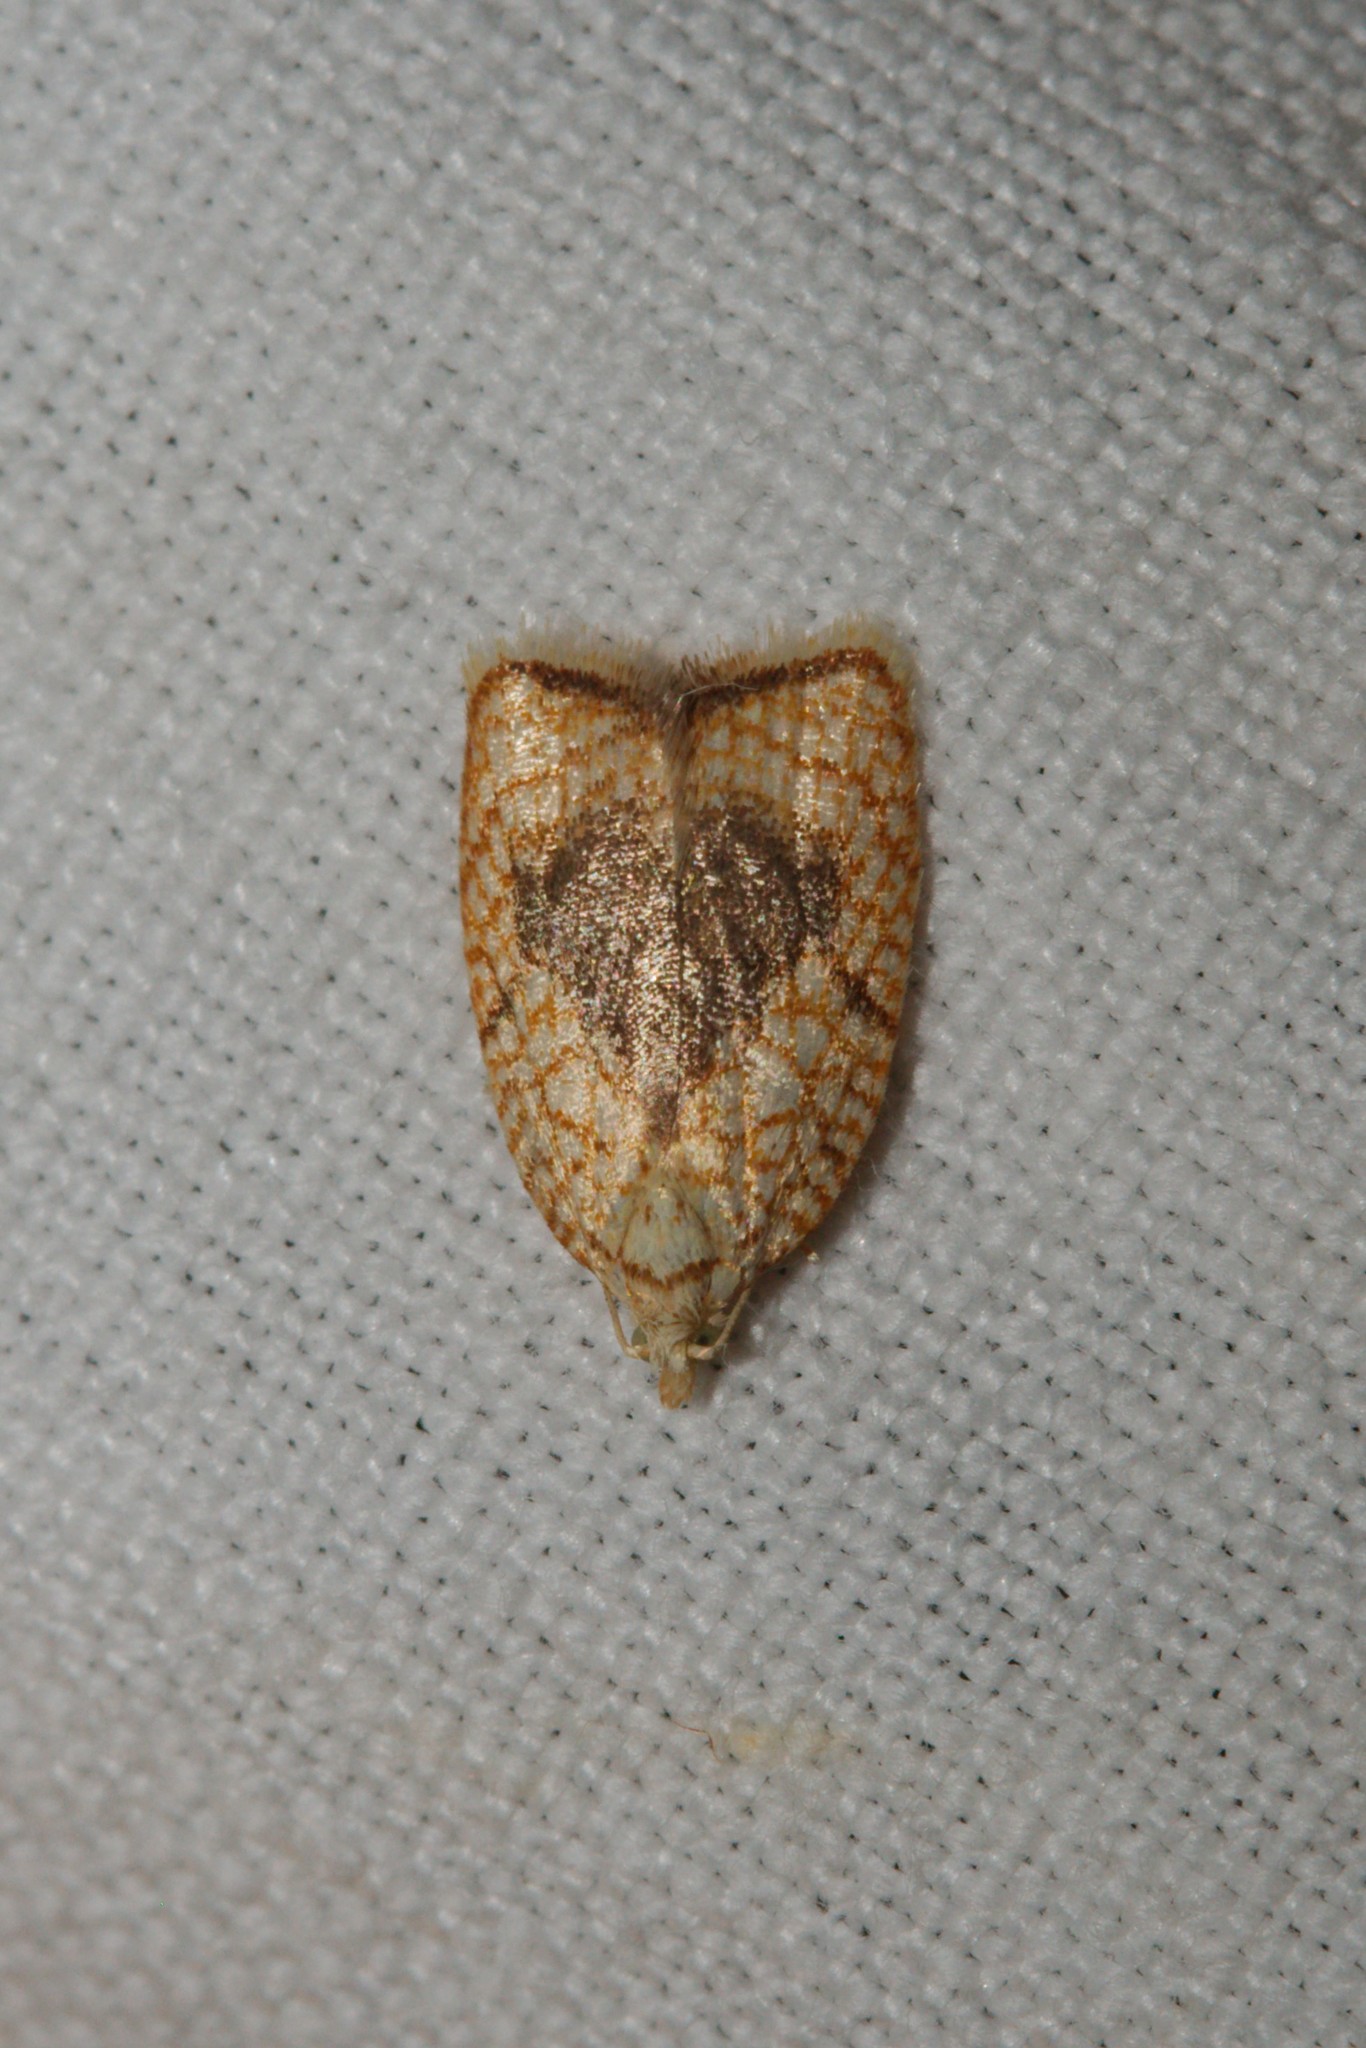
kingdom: Animalia
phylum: Arthropoda
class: Insecta
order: Lepidoptera
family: Tortricidae
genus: Acleris
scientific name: Acleris forsskaleana
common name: Maple button
